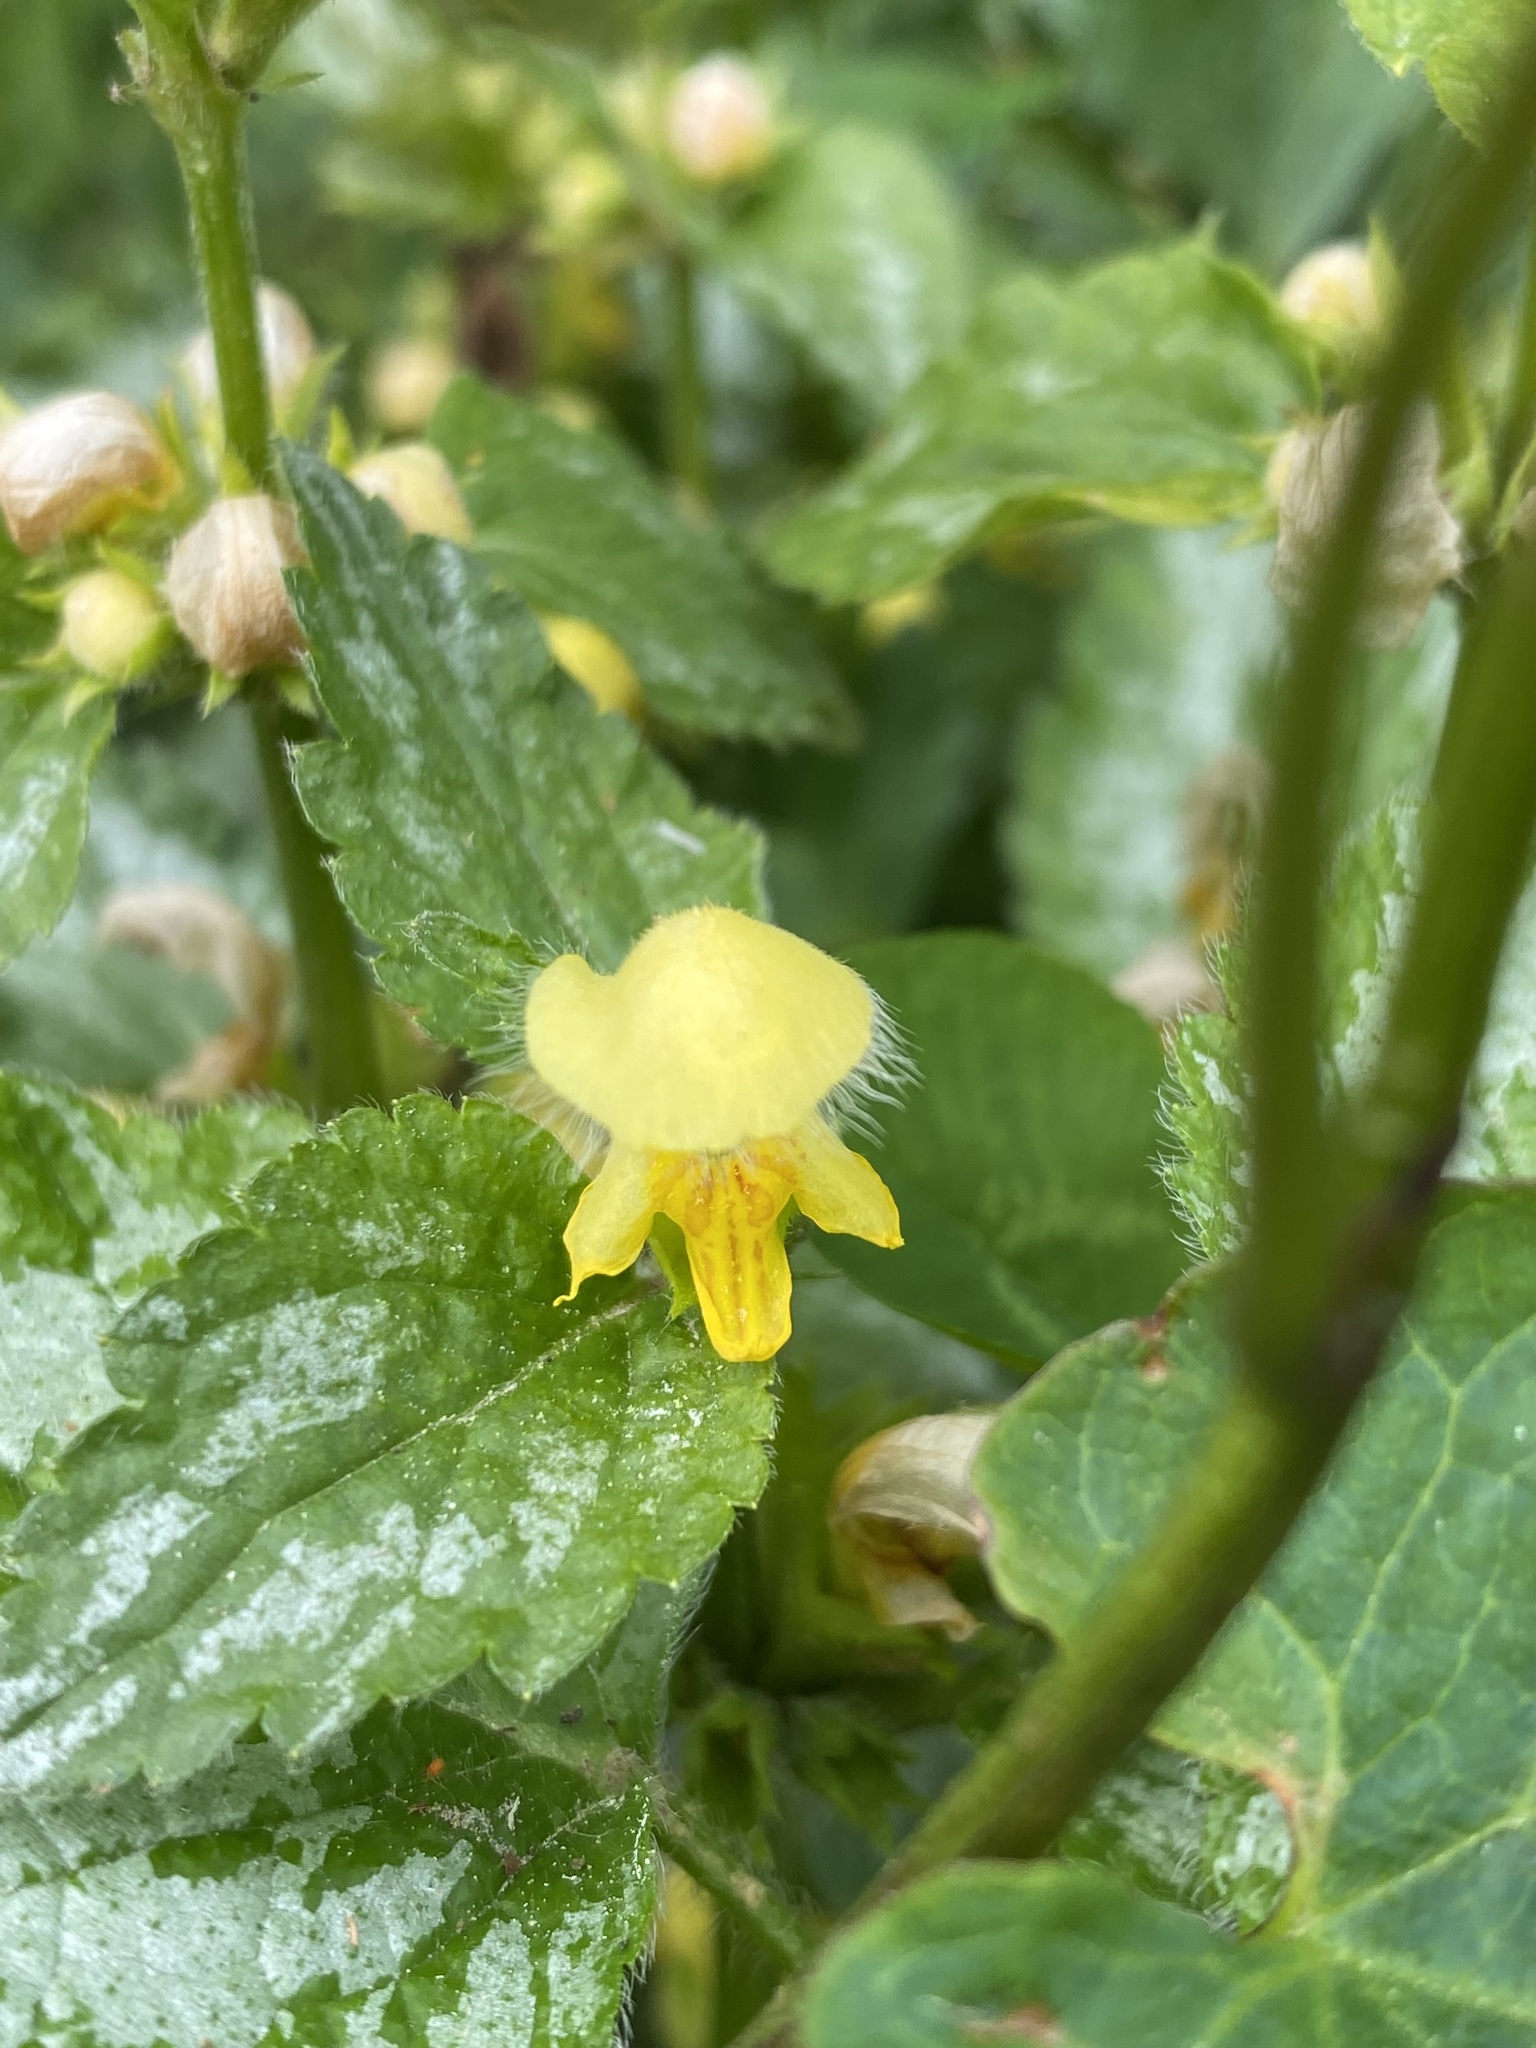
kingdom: Plantae
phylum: Tracheophyta
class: Magnoliopsida
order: Lamiales
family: Lamiaceae
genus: Lamium
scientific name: Lamium galeobdolon
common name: Yellow archangel
